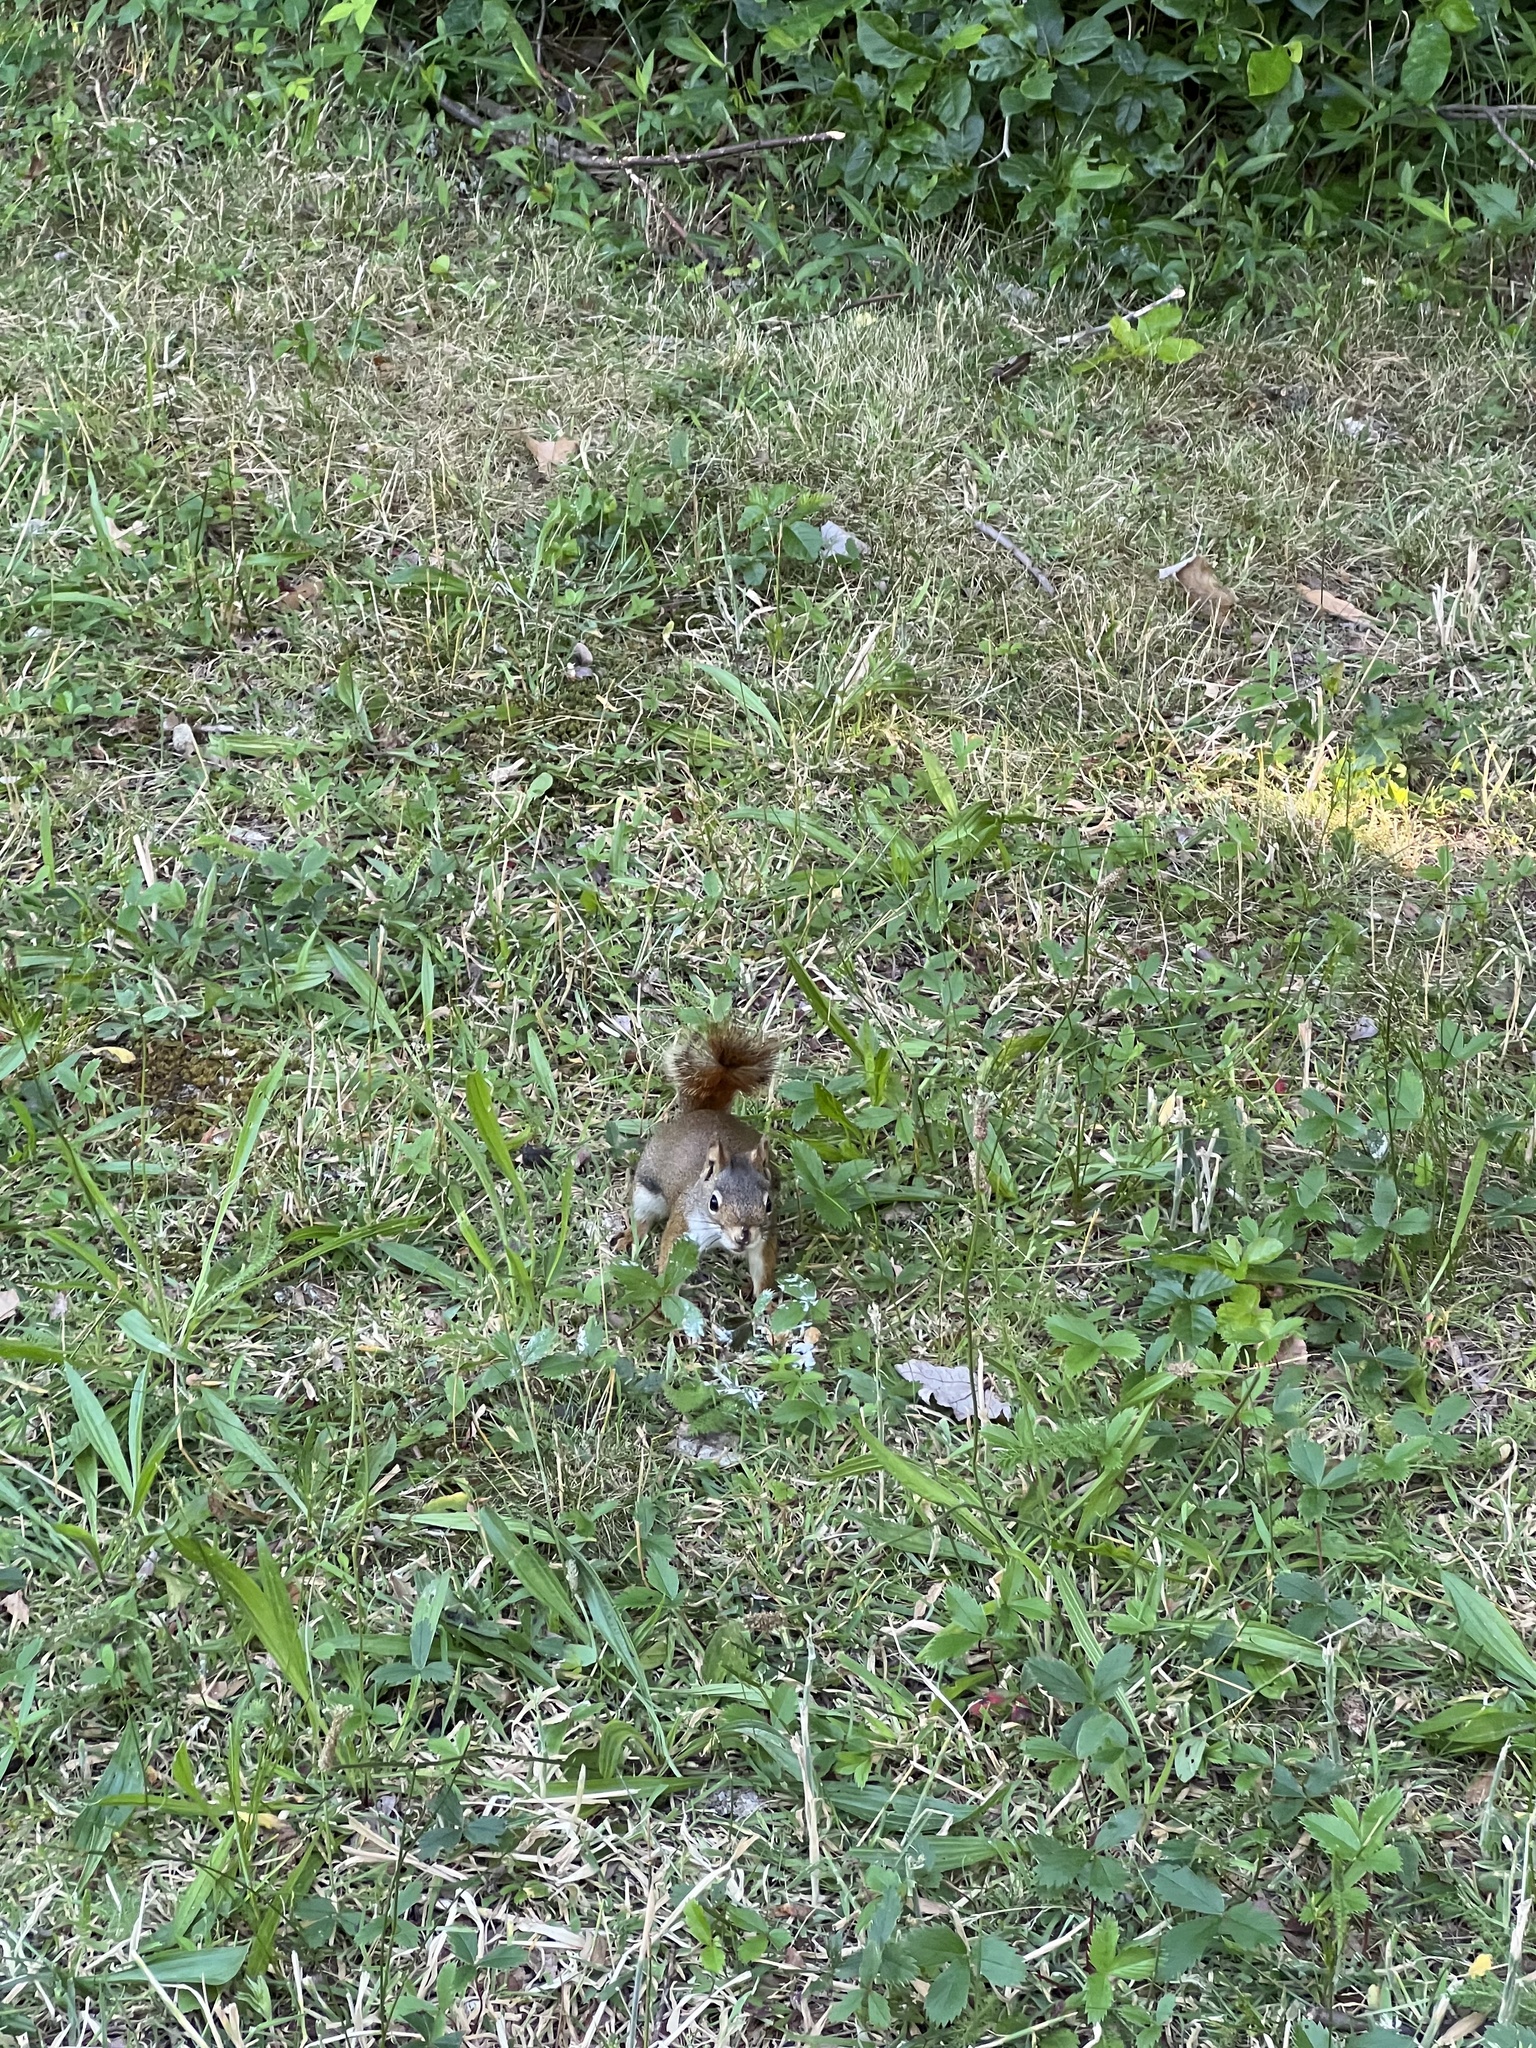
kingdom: Animalia
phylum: Chordata
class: Mammalia
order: Rodentia
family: Sciuridae
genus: Tamiasciurus
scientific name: Tamiasciurus hudsonicus
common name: Red squirrel
